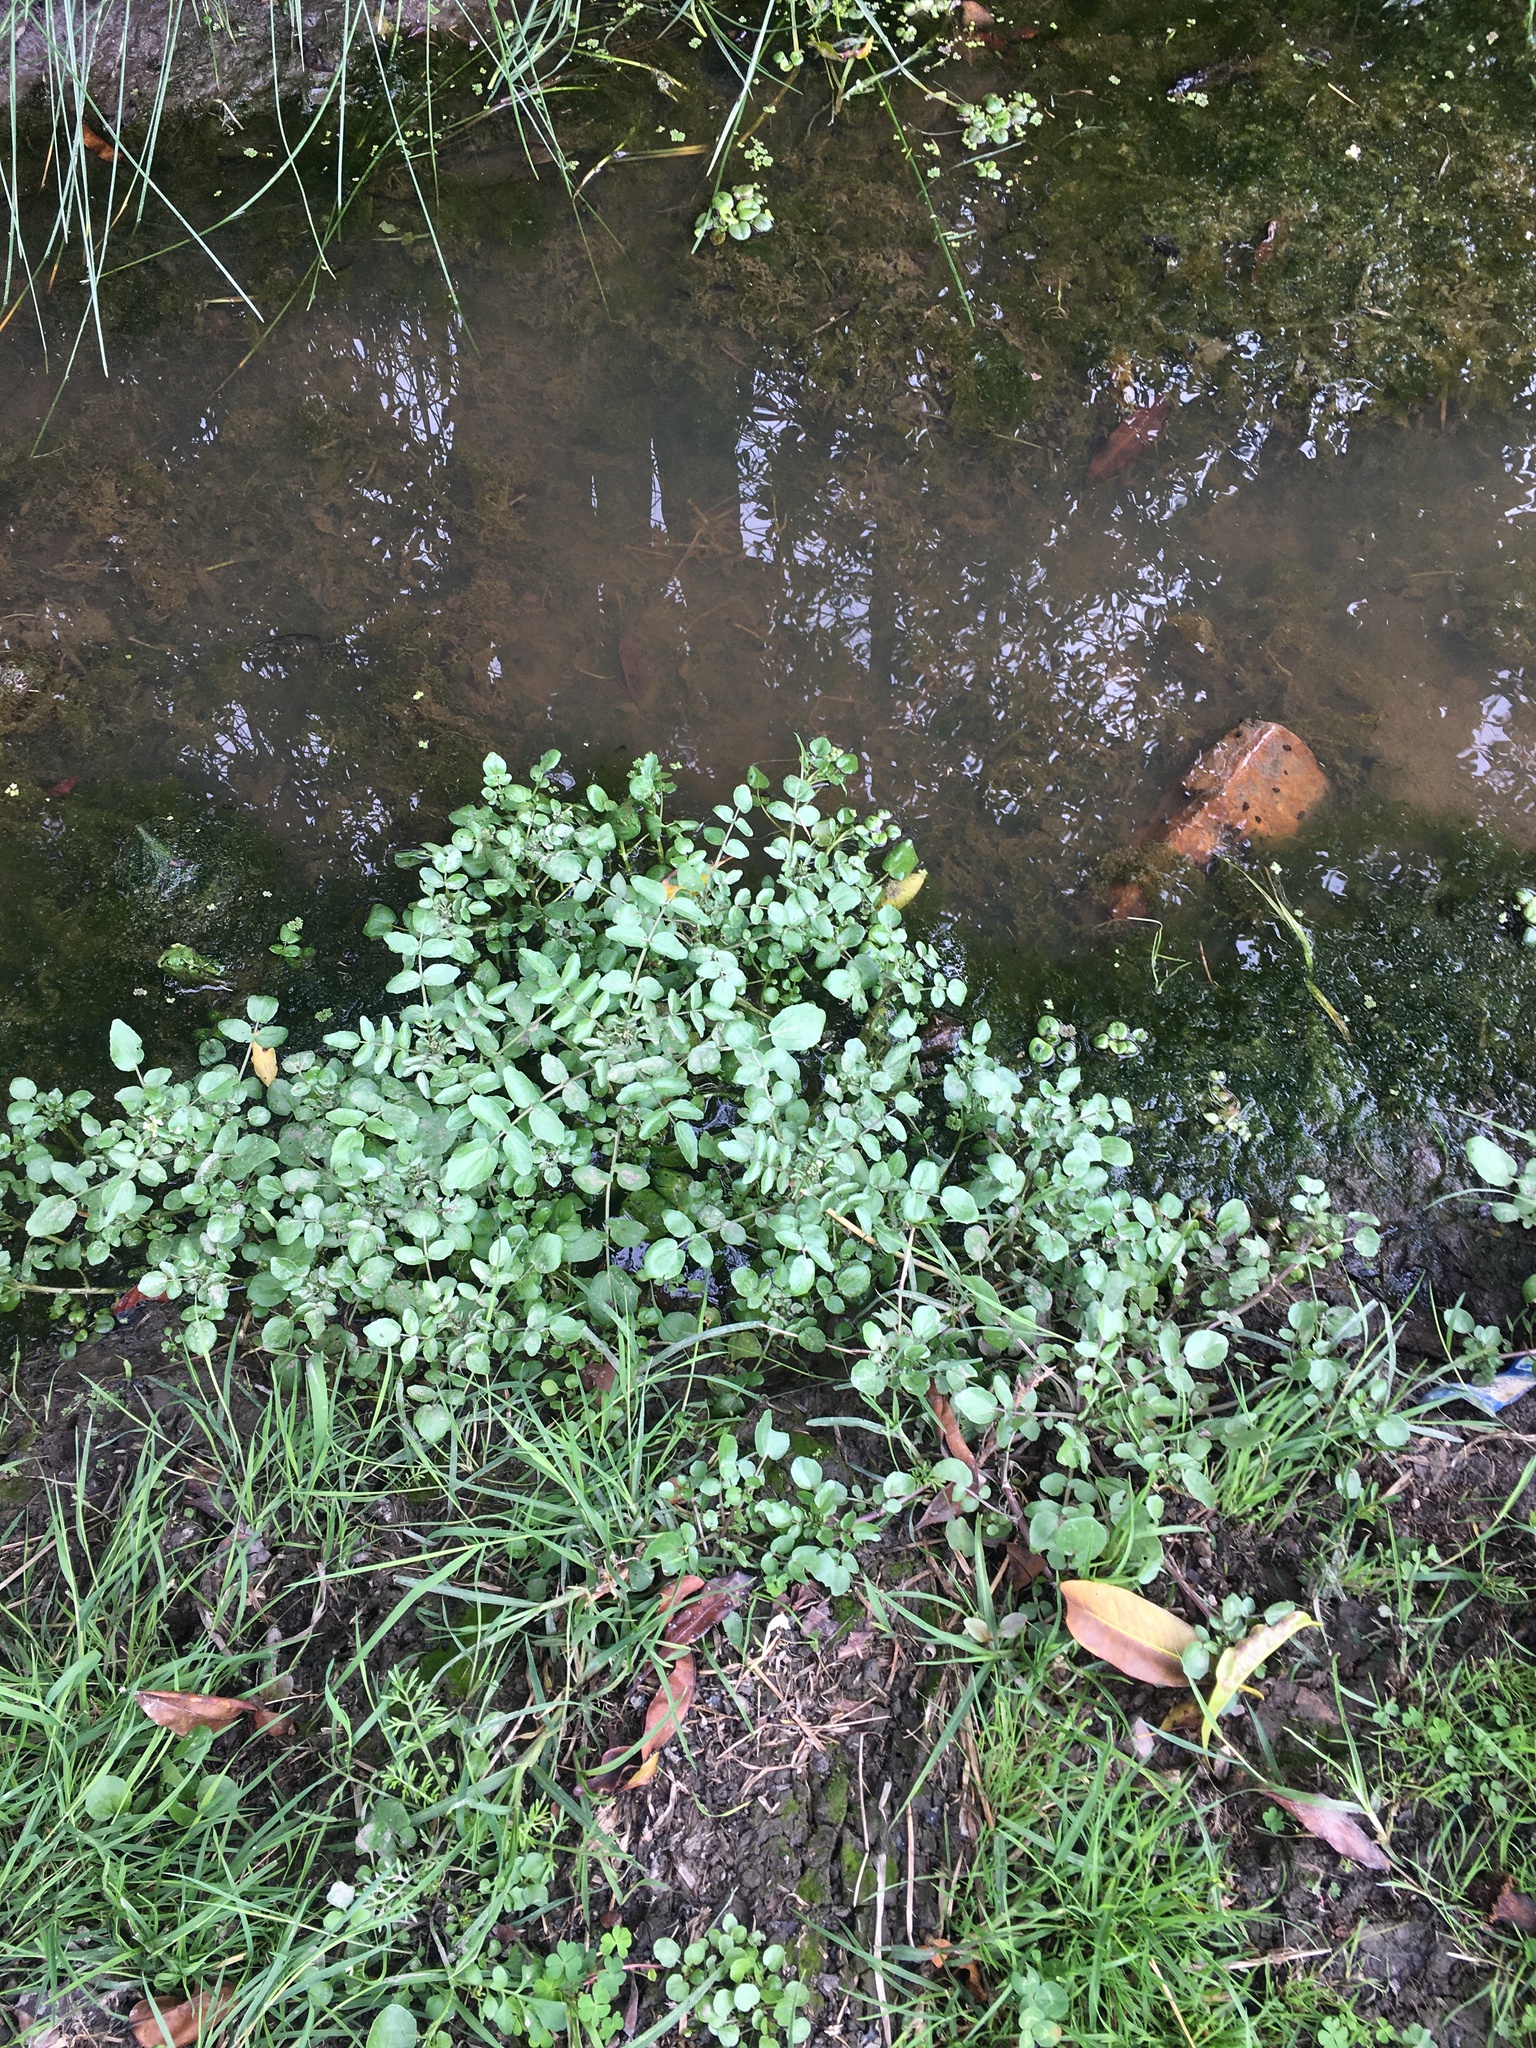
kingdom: Plantae
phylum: Tracheophyta
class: Magnoliopsida
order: Brassicales
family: Brassicaceae
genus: Nasturtium
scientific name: Nasturtium officinale
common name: Watercress
